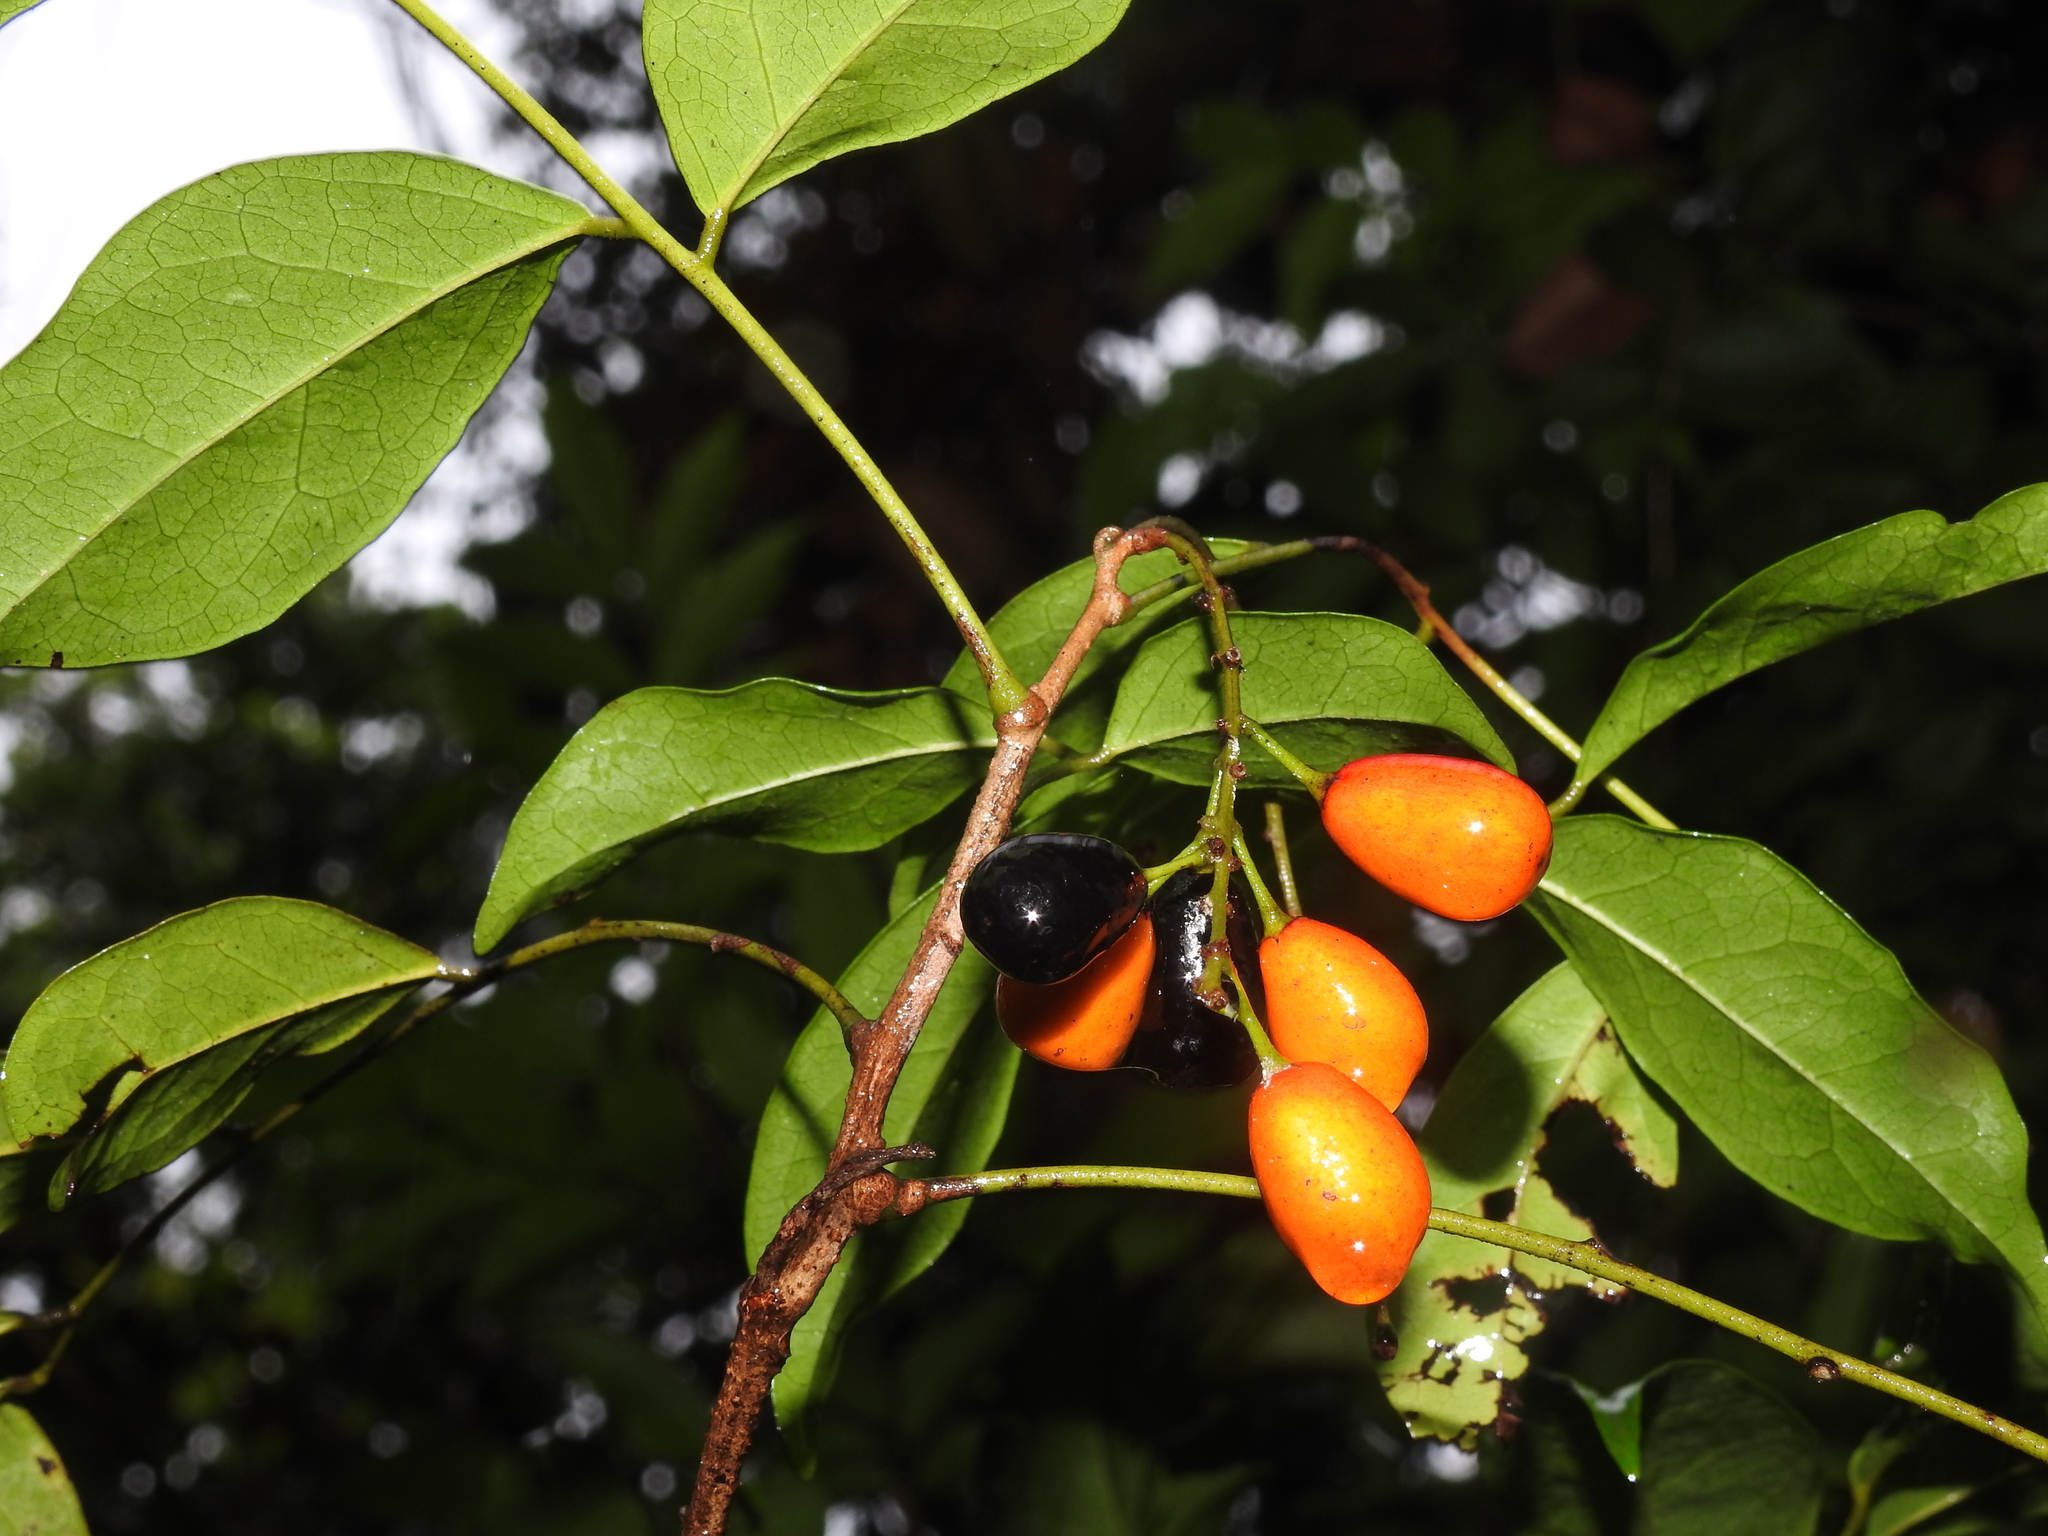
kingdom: Plantae
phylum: Tracheophyta
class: Magnoliopsida
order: Picramniales
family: Picramniaceae
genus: Picramnia
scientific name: Picramnia pentandra
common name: Florida bitterbush
